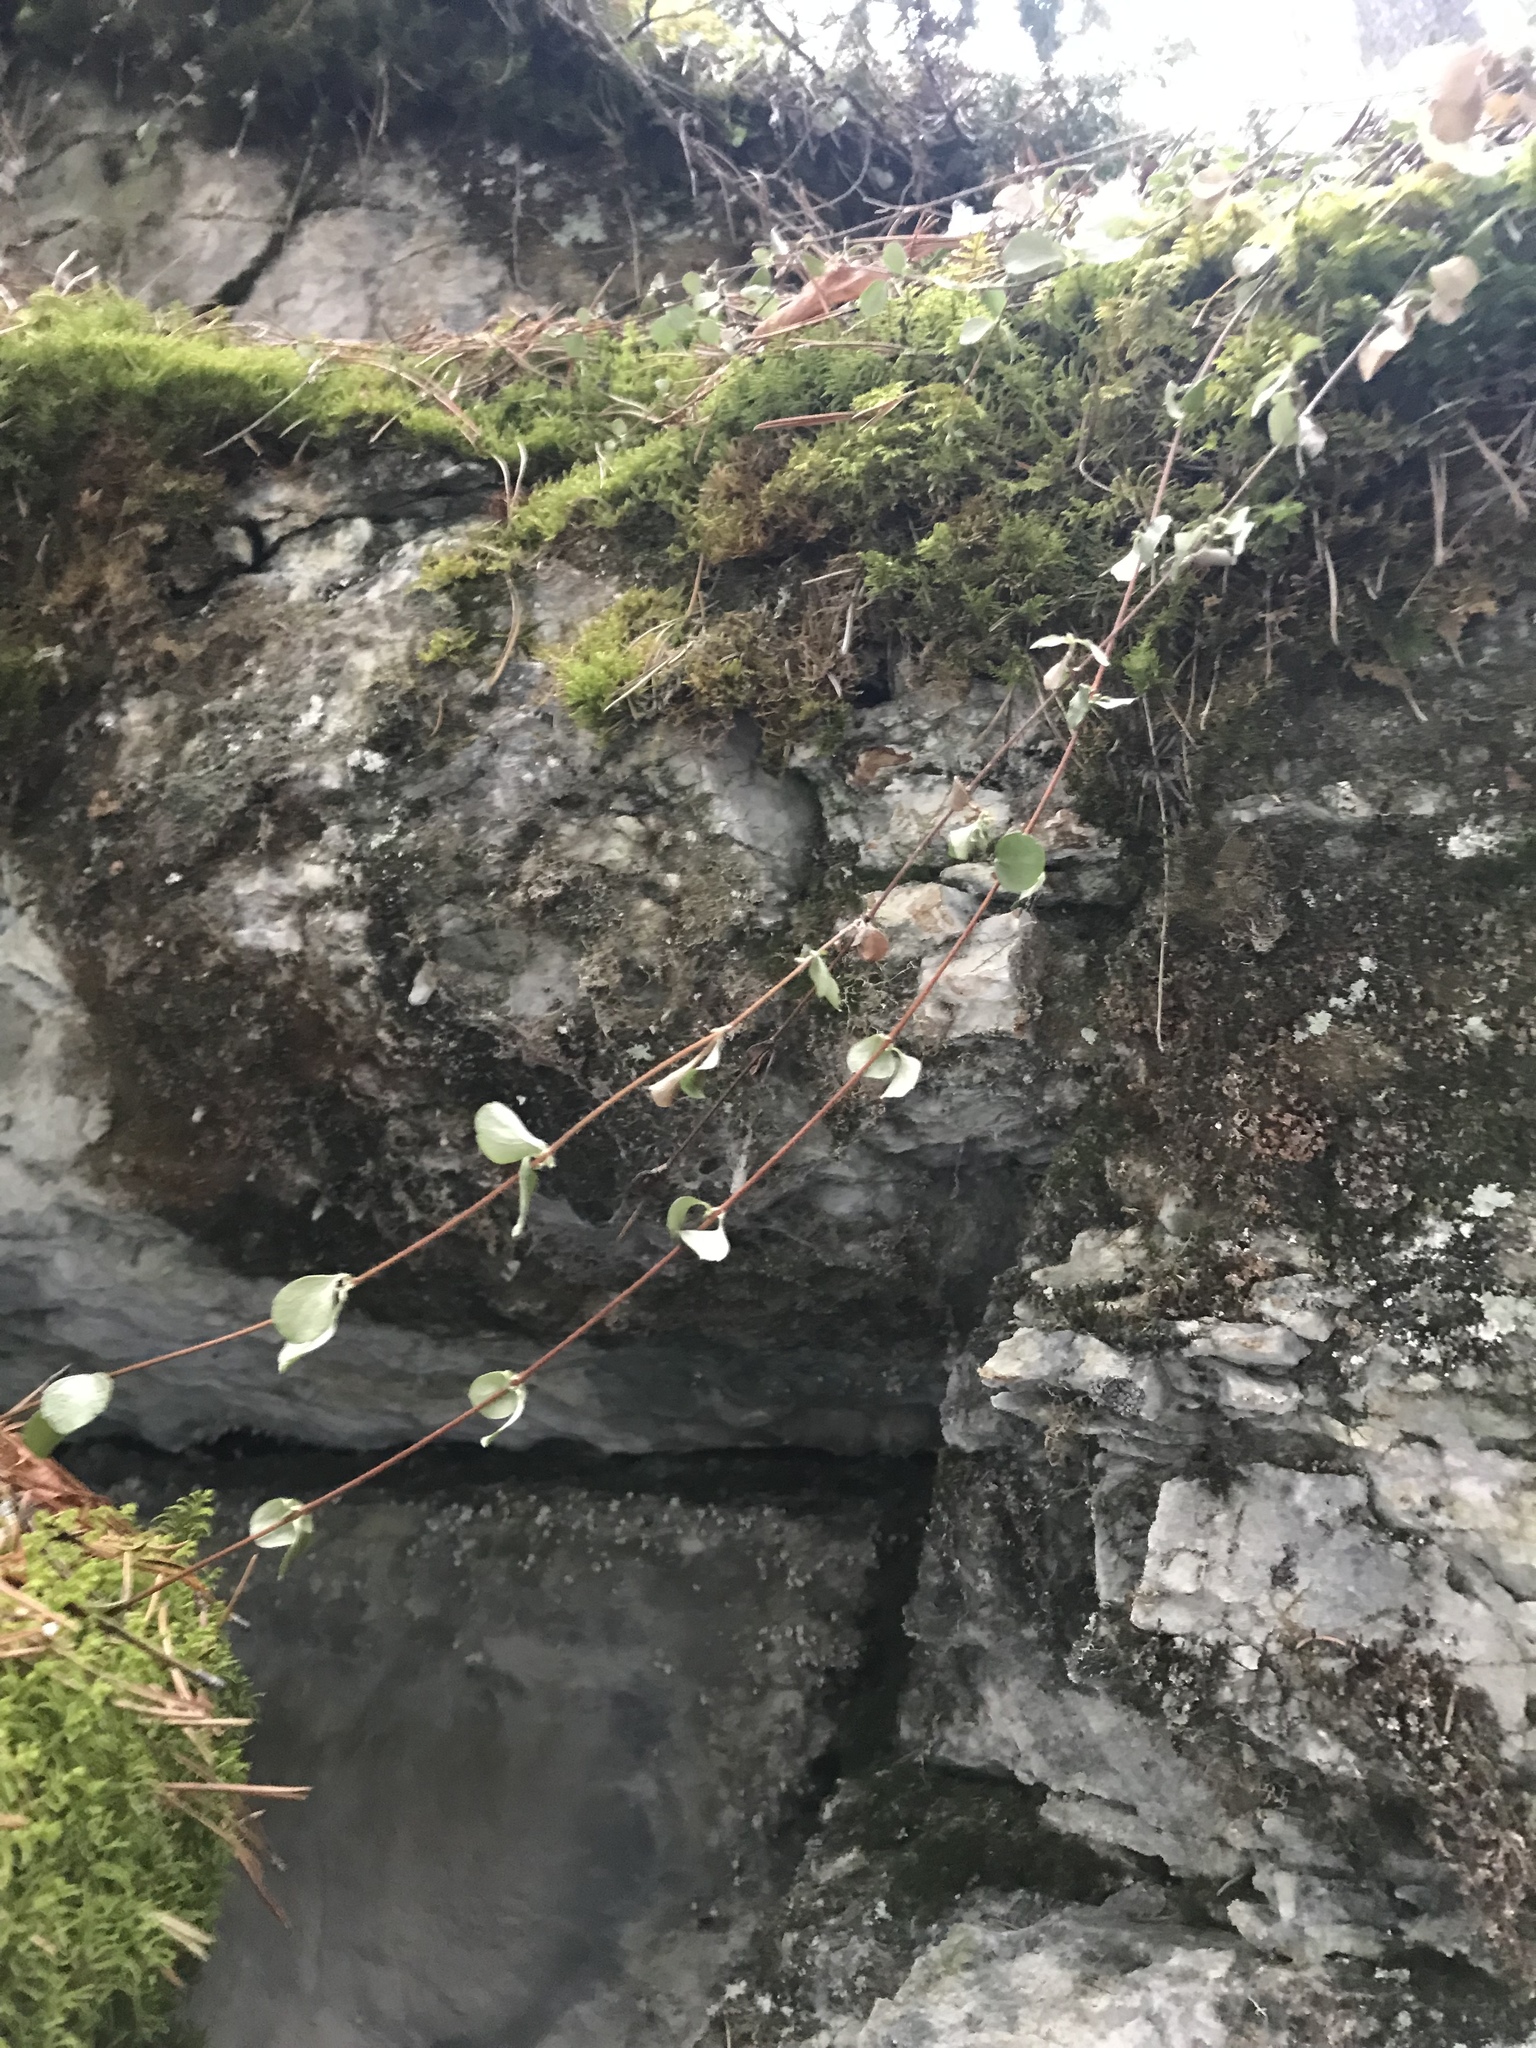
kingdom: Plantae
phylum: Tracheophyta
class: Magnoliopsida
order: Dipsacales
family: Caprifoliaceae
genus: Linnaea
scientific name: Linnaea borealis
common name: Twinflower
